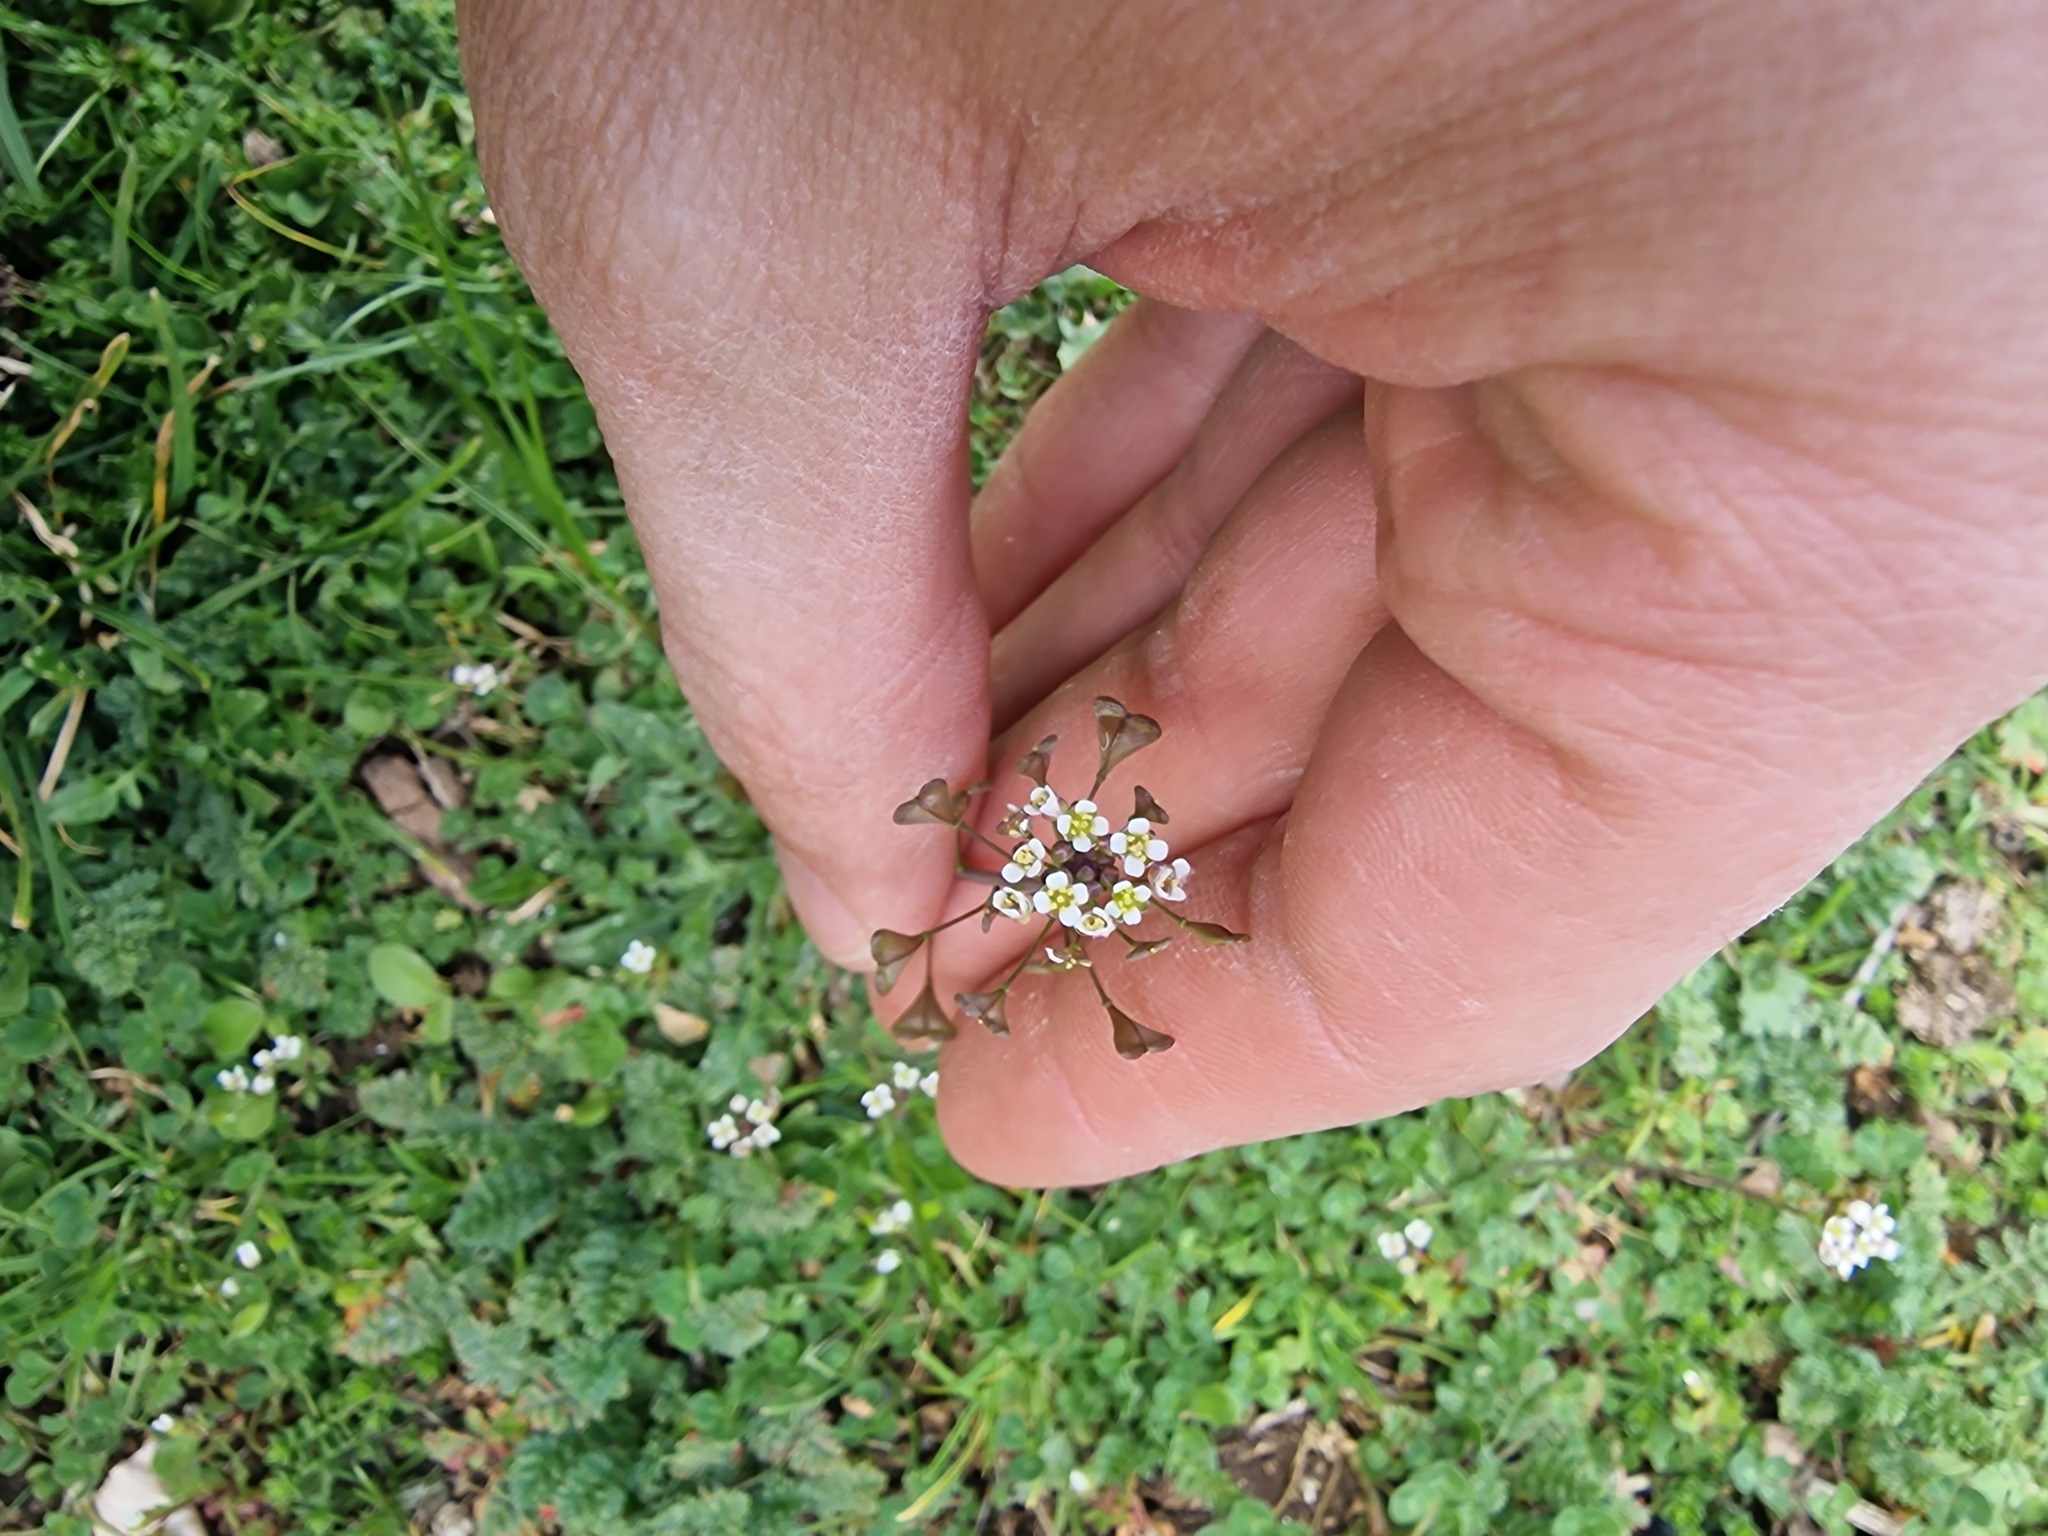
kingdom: Plantae
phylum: Tracheophyta
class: Magnoliopsida
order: Brassicales
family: Brassicaceae
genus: Capsella
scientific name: Capsella bursa-pastoris
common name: Shepherd's purse
